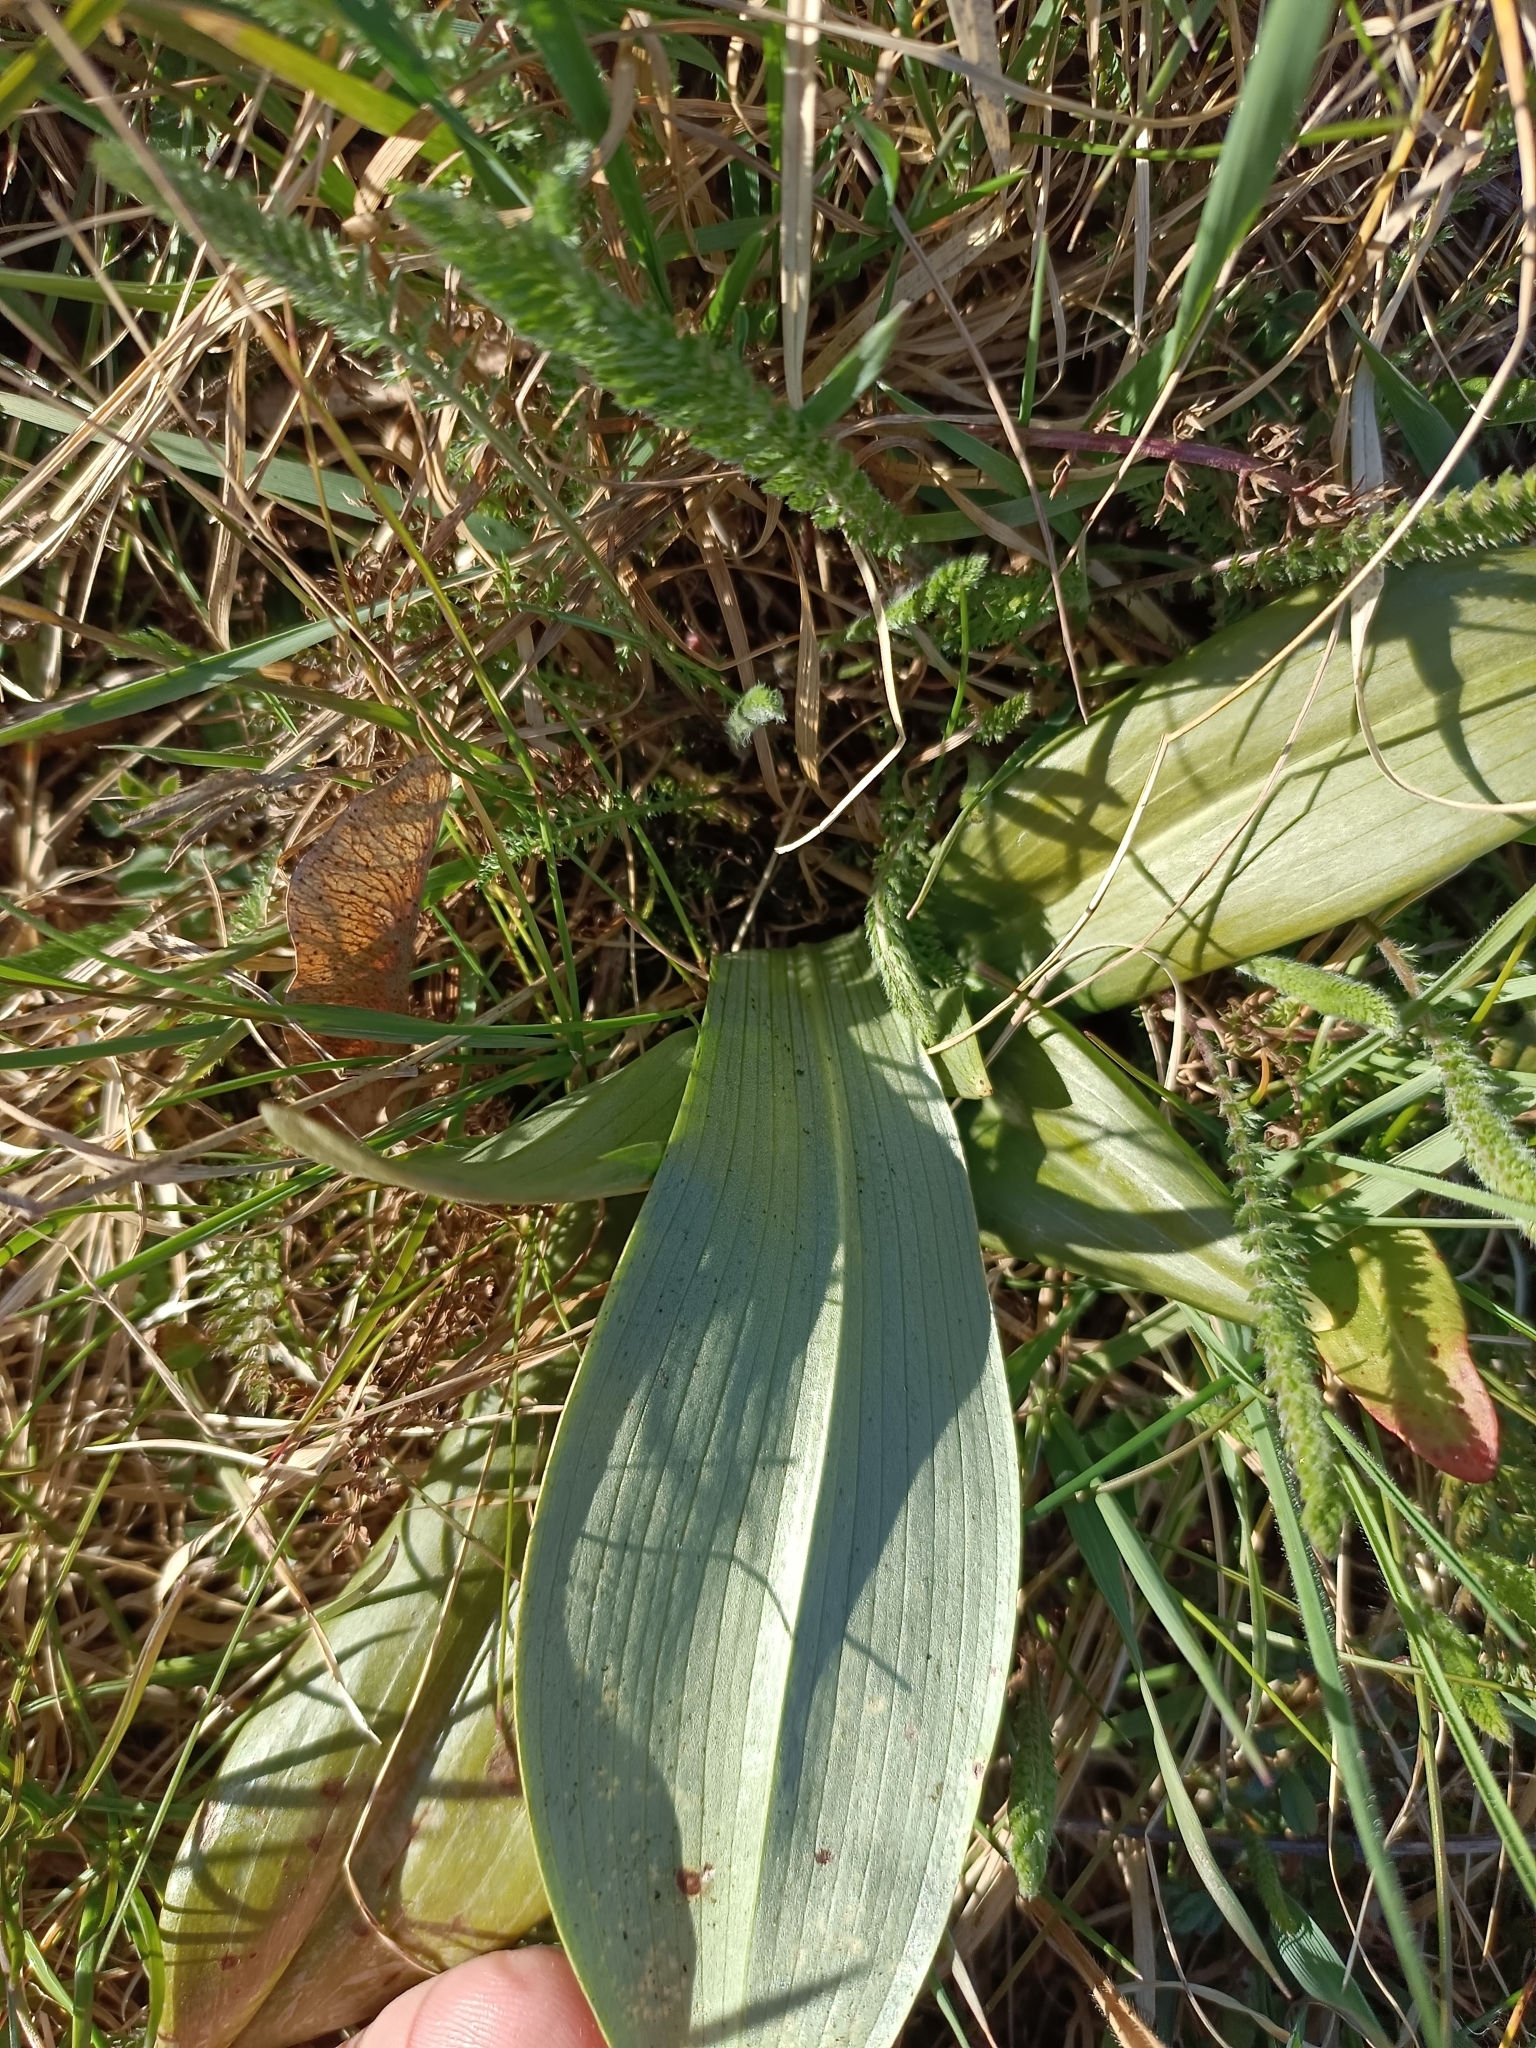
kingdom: Plantae
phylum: Tracheophyta
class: Liliopsida
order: Asparagales
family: Orchidaceae
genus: Himantoglossum
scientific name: Himantoglossum adriaticum
